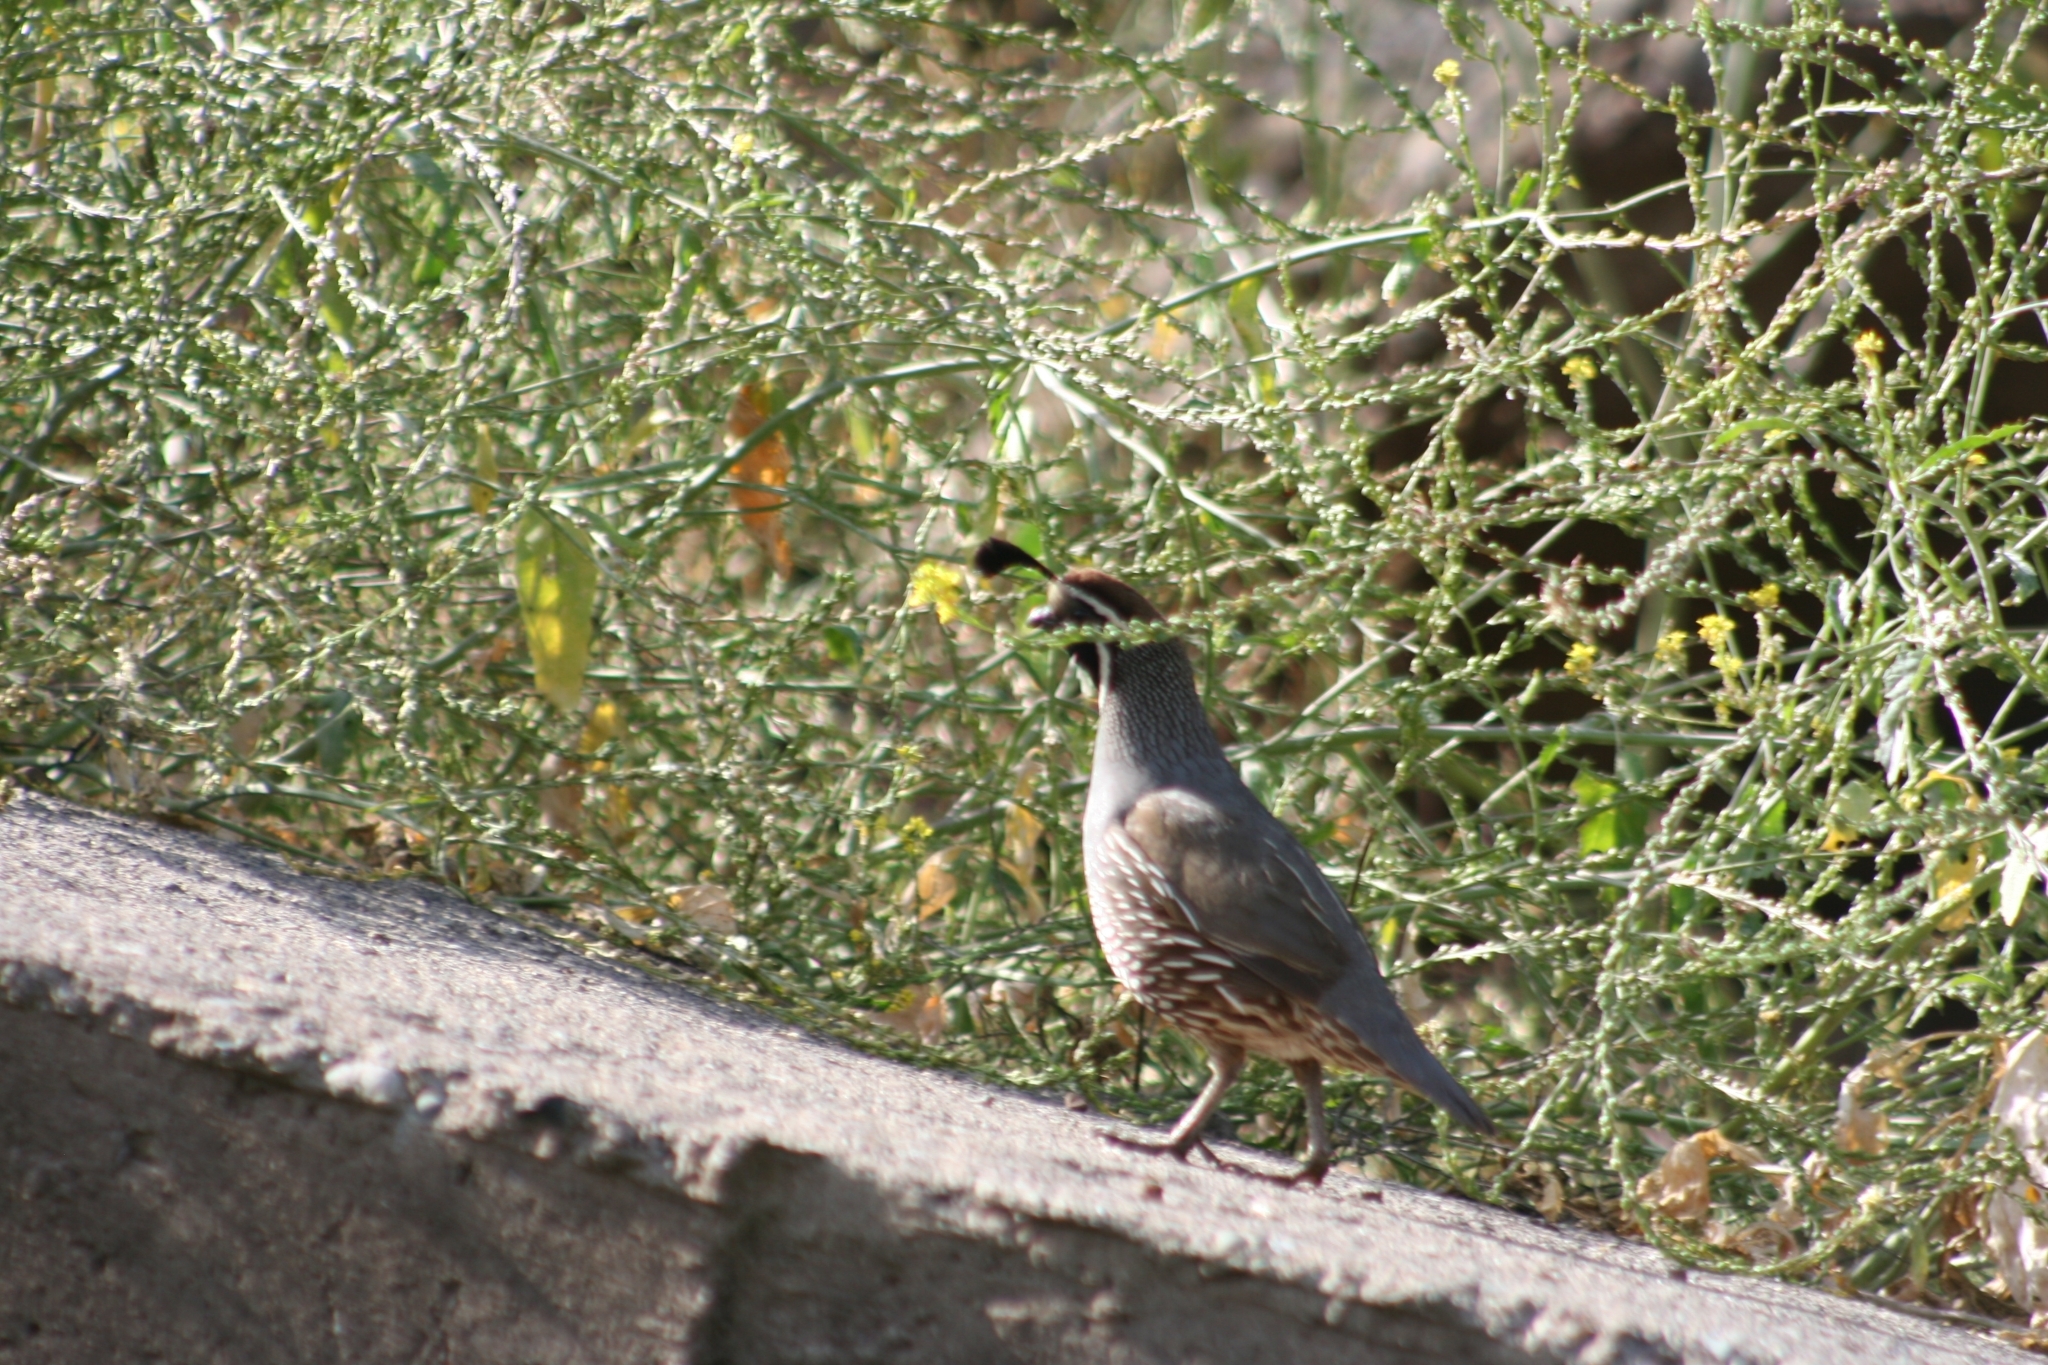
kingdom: Animalia
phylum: Chordata
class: Aves
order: Galliformes
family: Odontophoridae
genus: Callipepla
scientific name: Callipepla californica
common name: California quail
